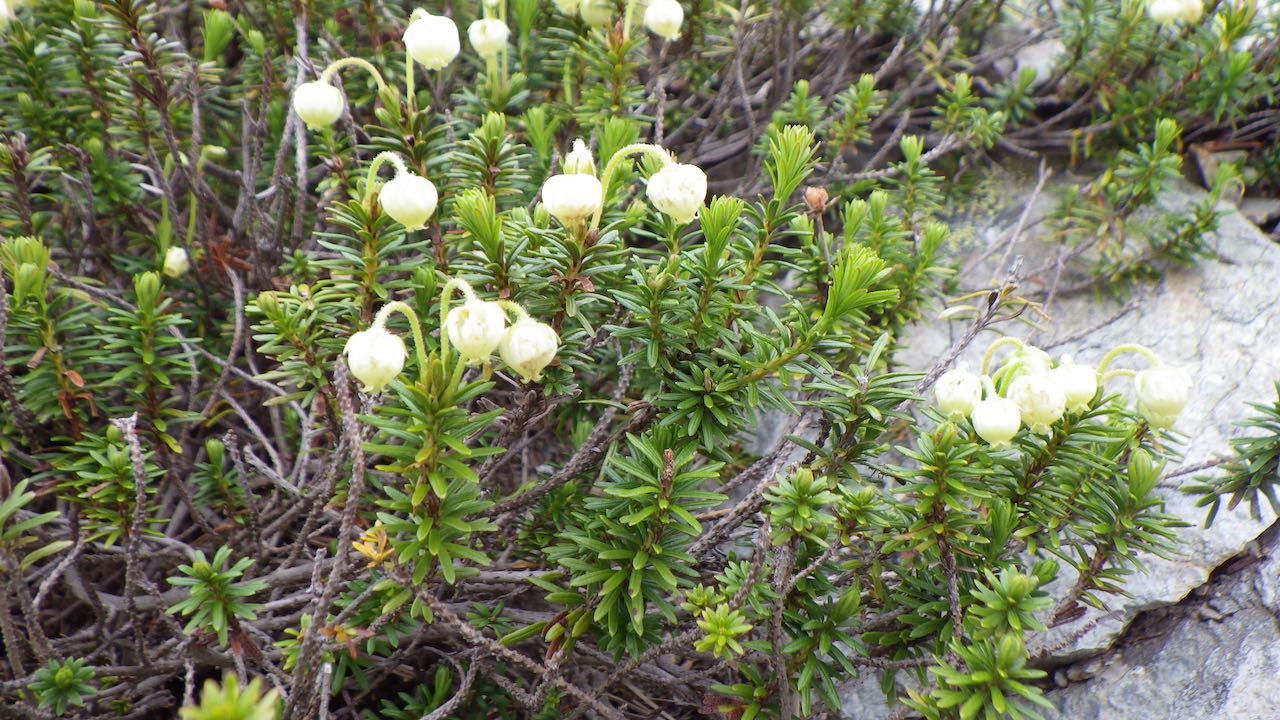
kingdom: Plantae
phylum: Tracheophyta
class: Magnoliopsida
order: Ericales
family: Ericaceae
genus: Phyllodoce
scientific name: Phyllodoce aleutica
